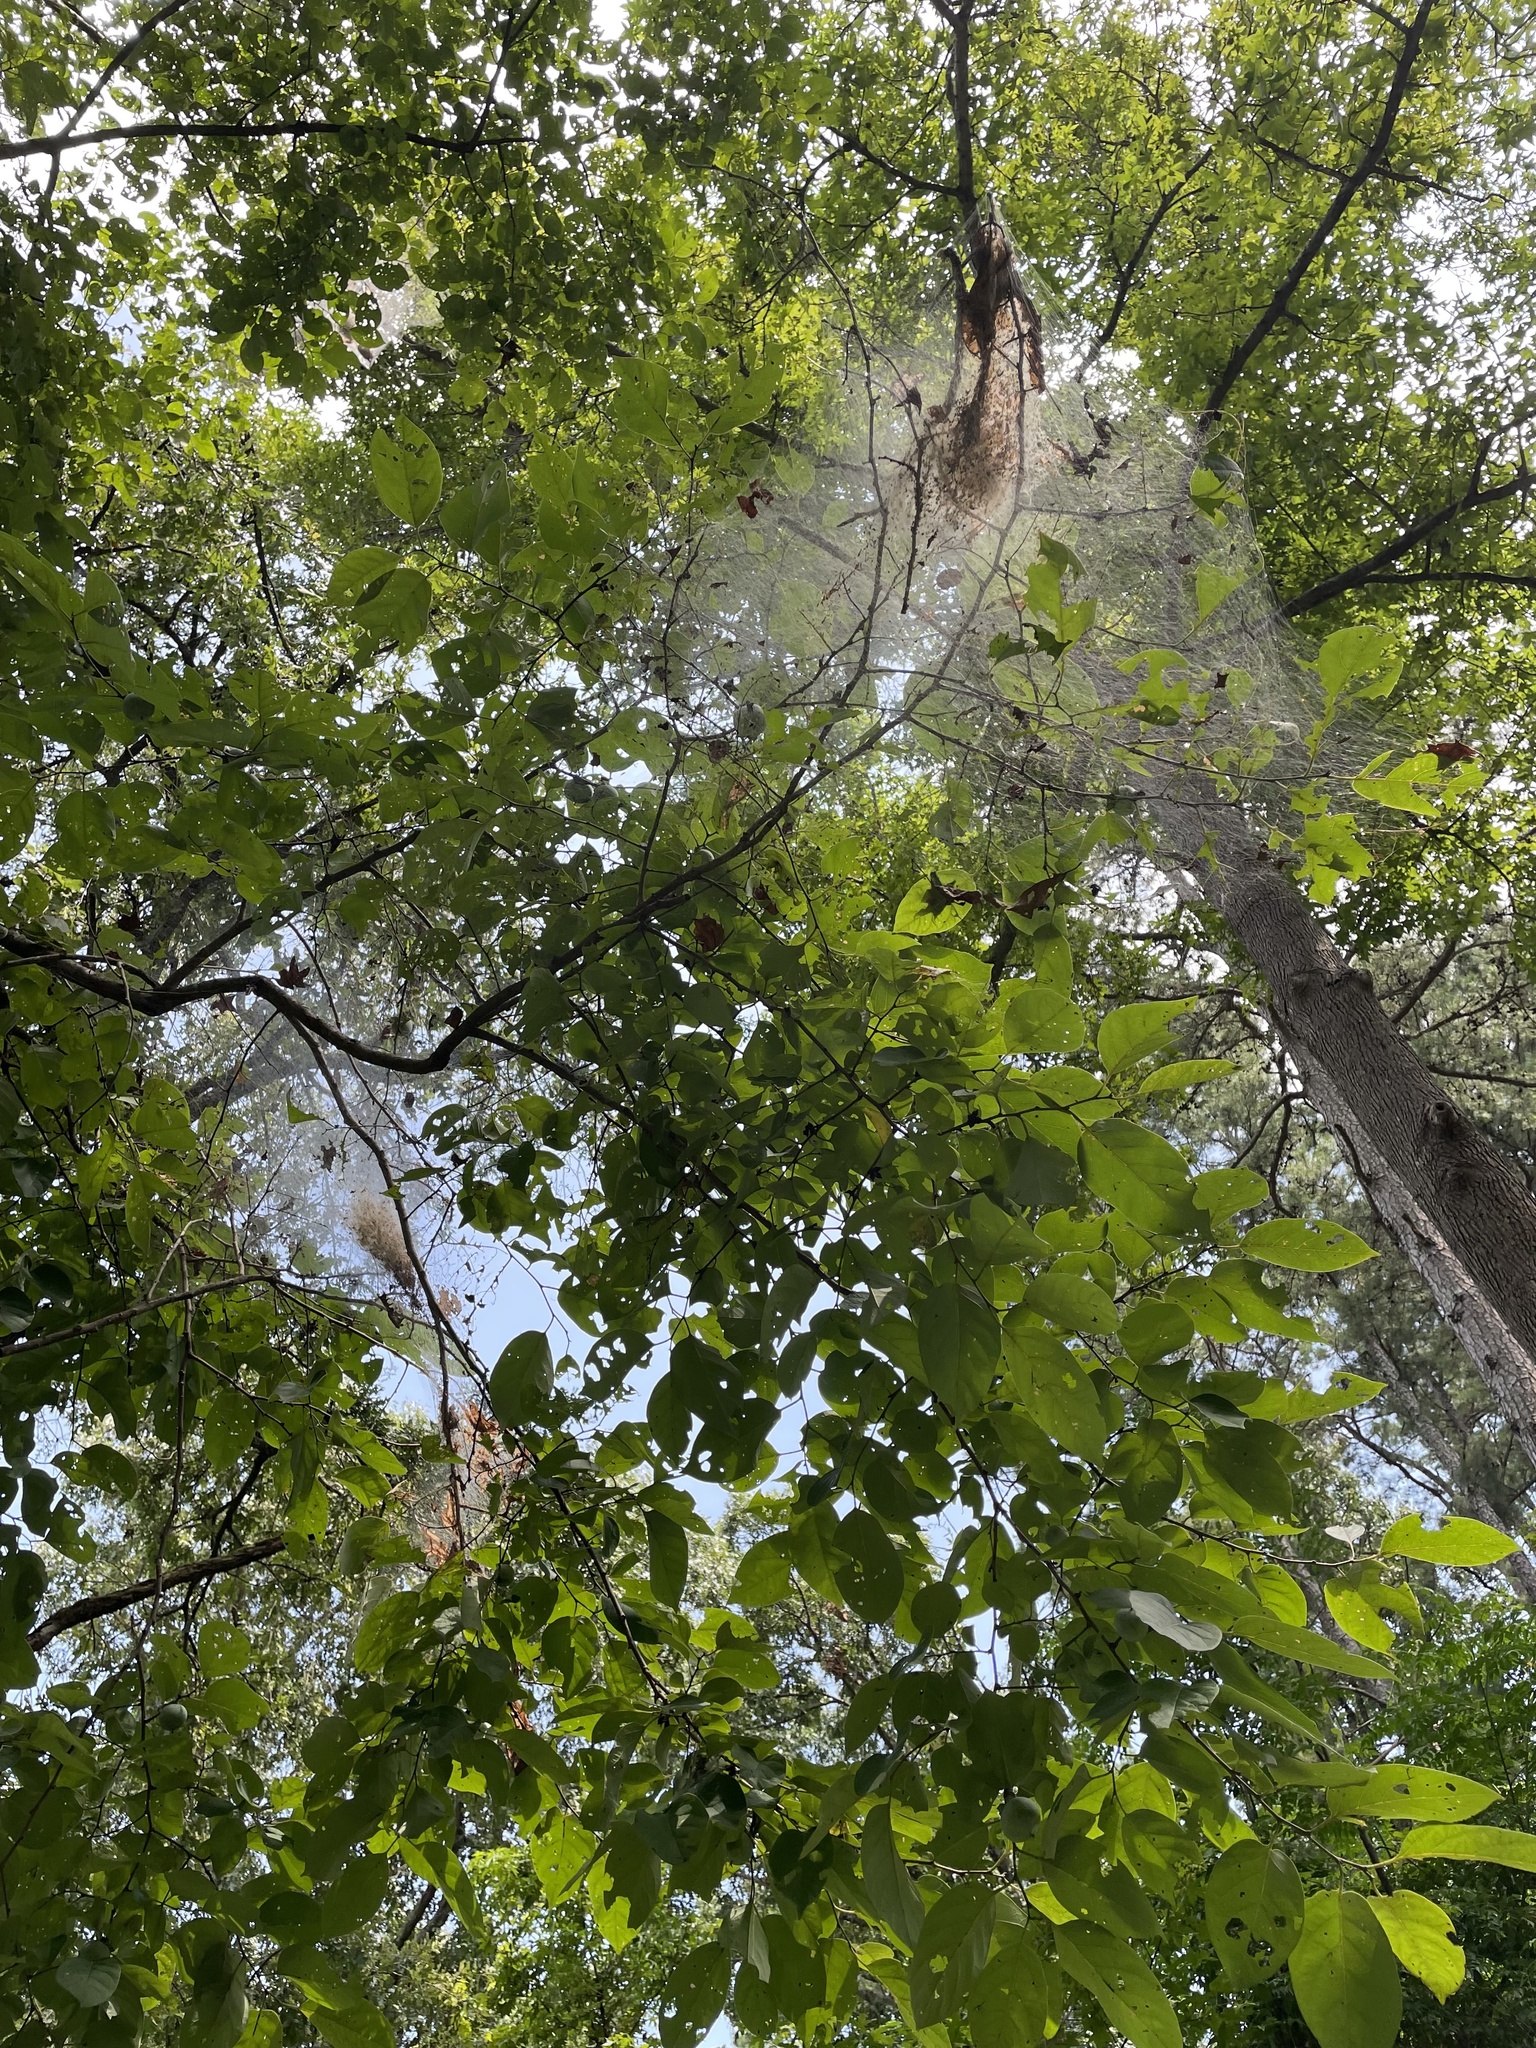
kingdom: Animalia
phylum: Arthropoda
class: Insecta
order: Lepidoptera
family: Erebidae
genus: Hyphantria
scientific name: Hyphantria cunea
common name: American white moth
